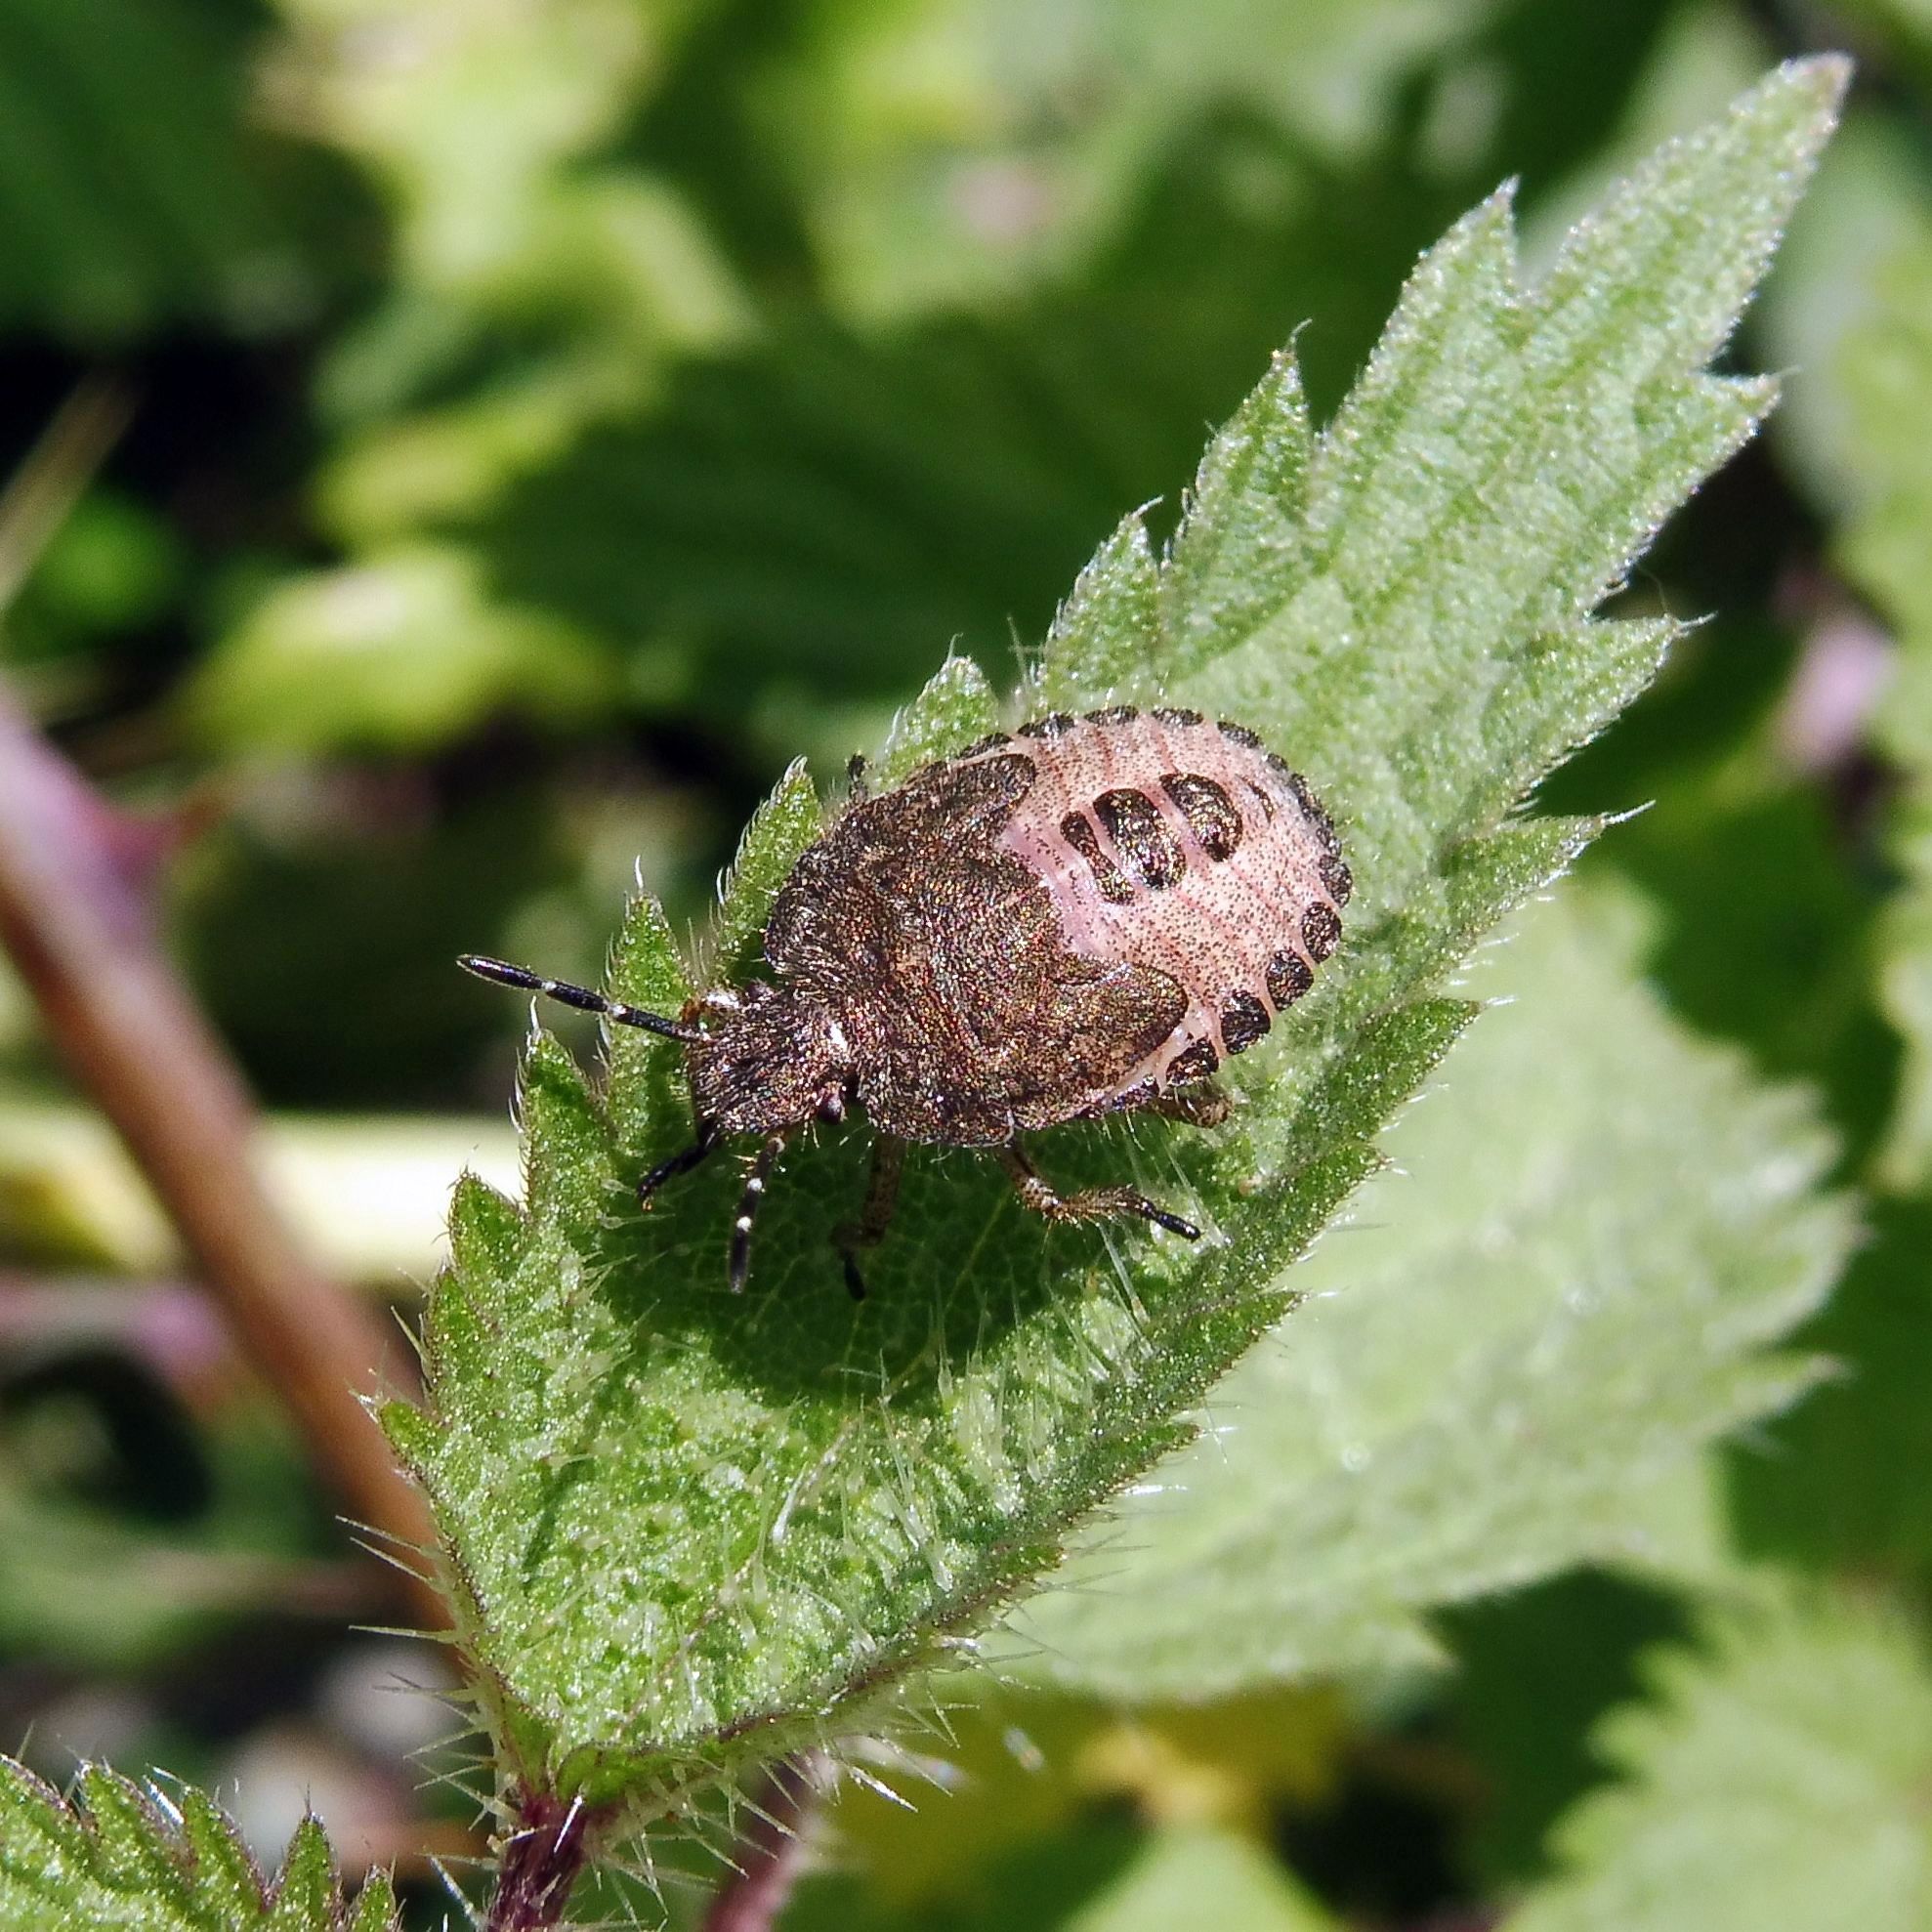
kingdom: Animalia
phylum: Arthropoda
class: Insecta
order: Hemiptera
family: Pentatomidae
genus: Dolycoris
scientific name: Dolycoris baccarum
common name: Sloe bug
